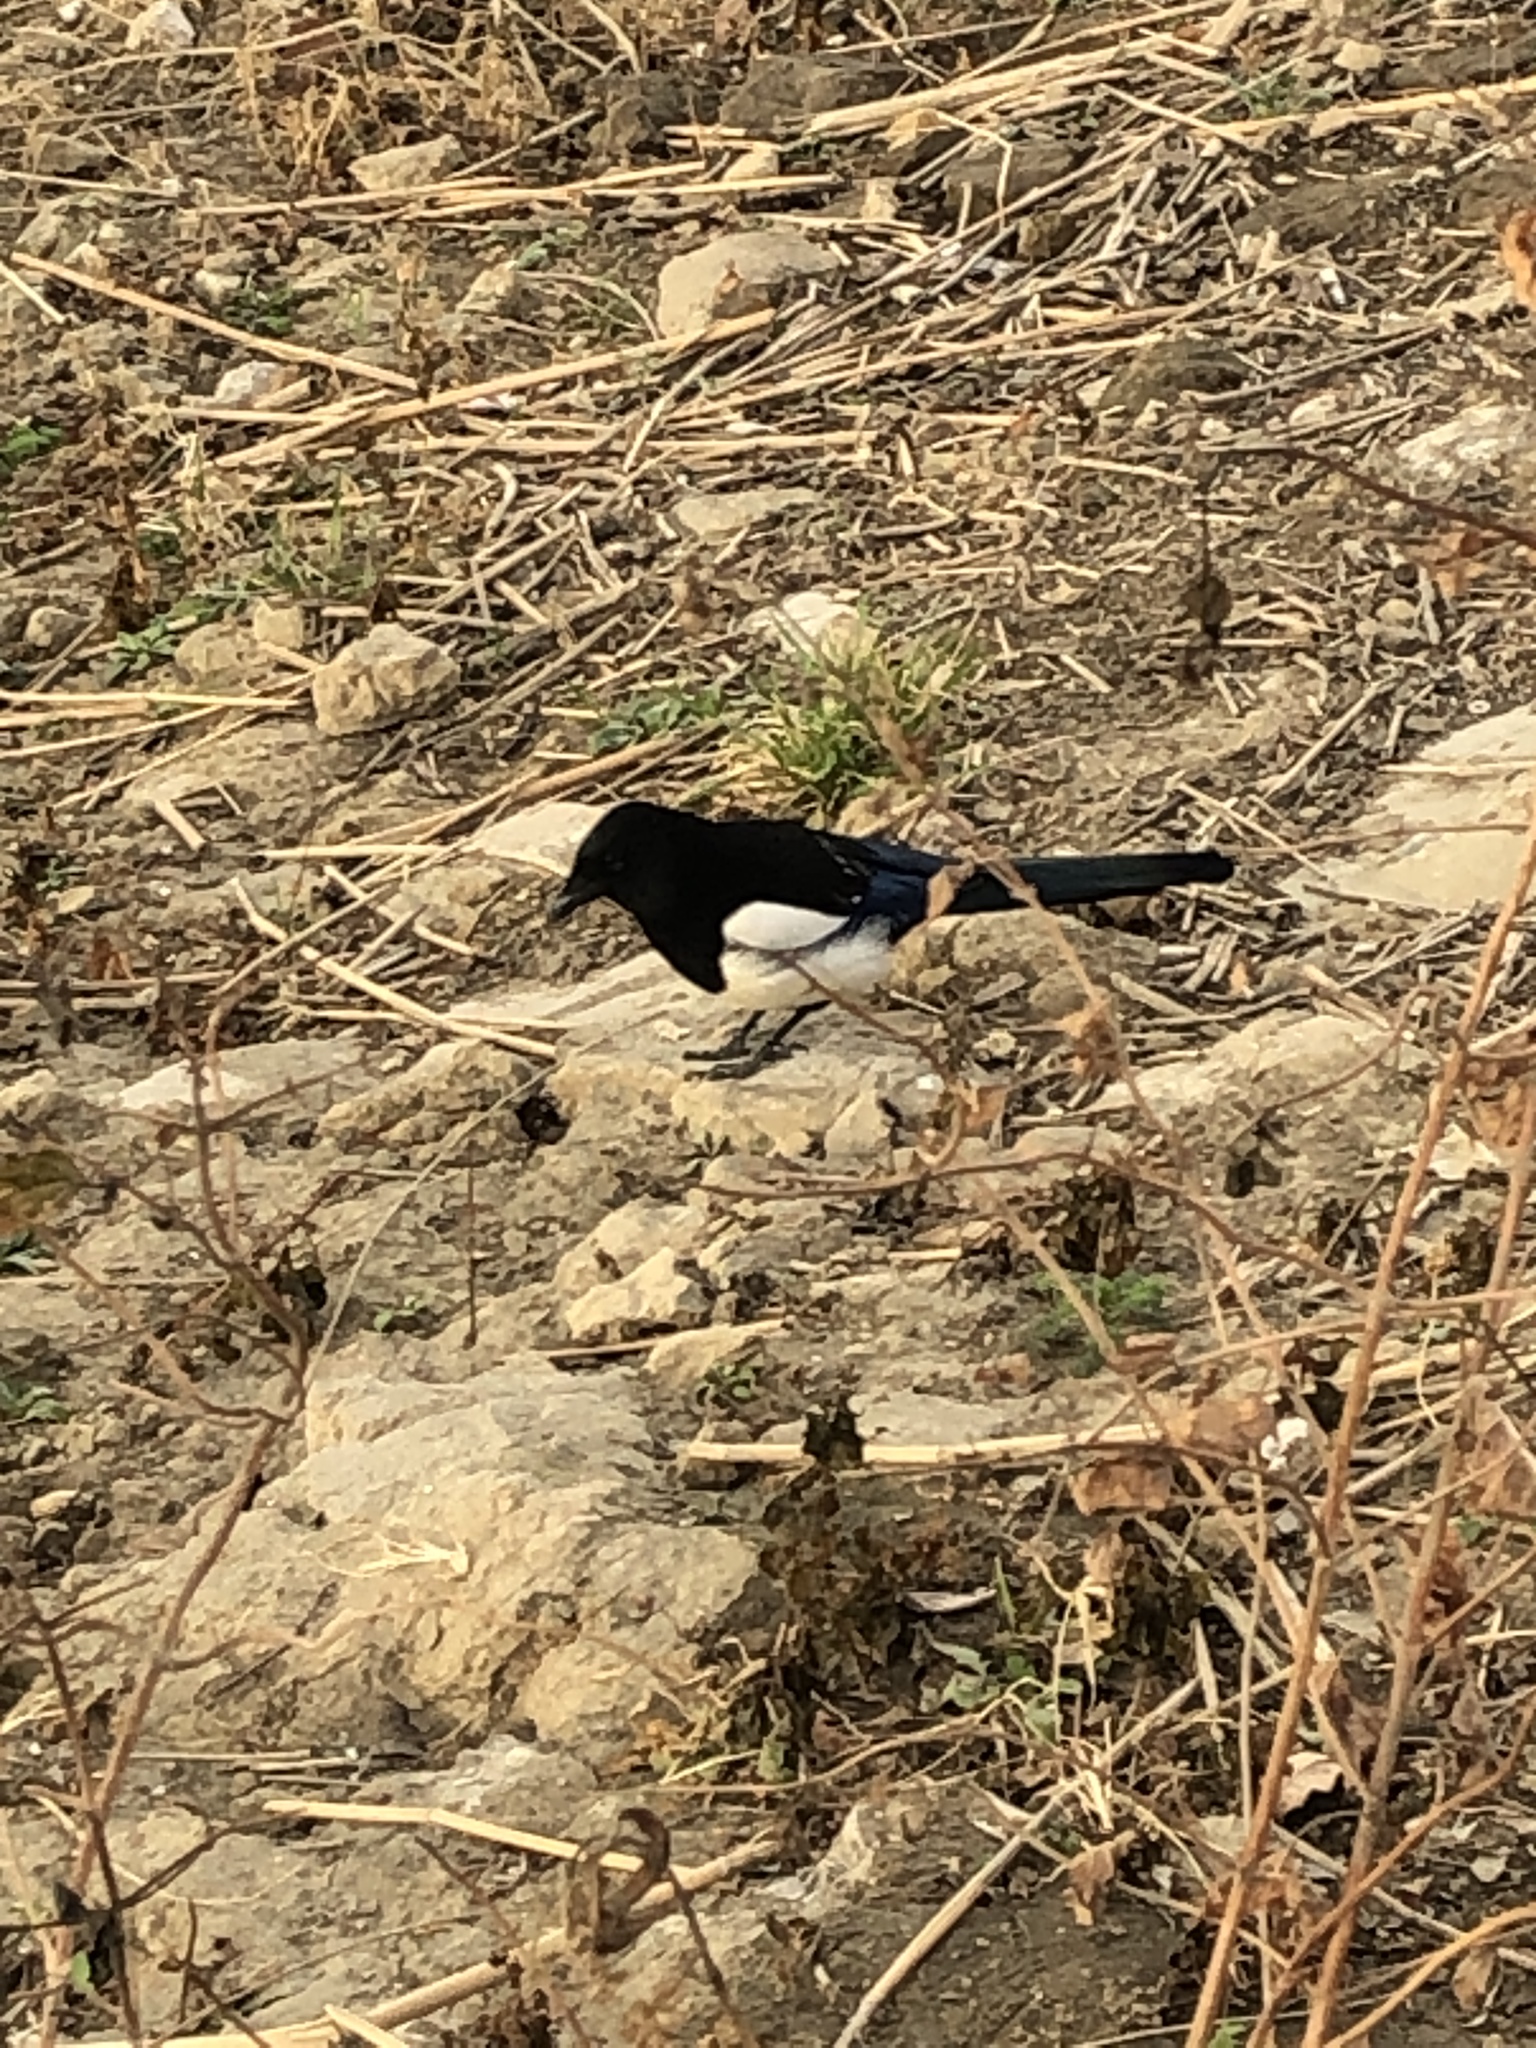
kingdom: Animalia
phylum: Chordata
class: Aves
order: Passeriformes
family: Corvidae
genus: Pica
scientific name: Pica serica
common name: Oriental magpie
